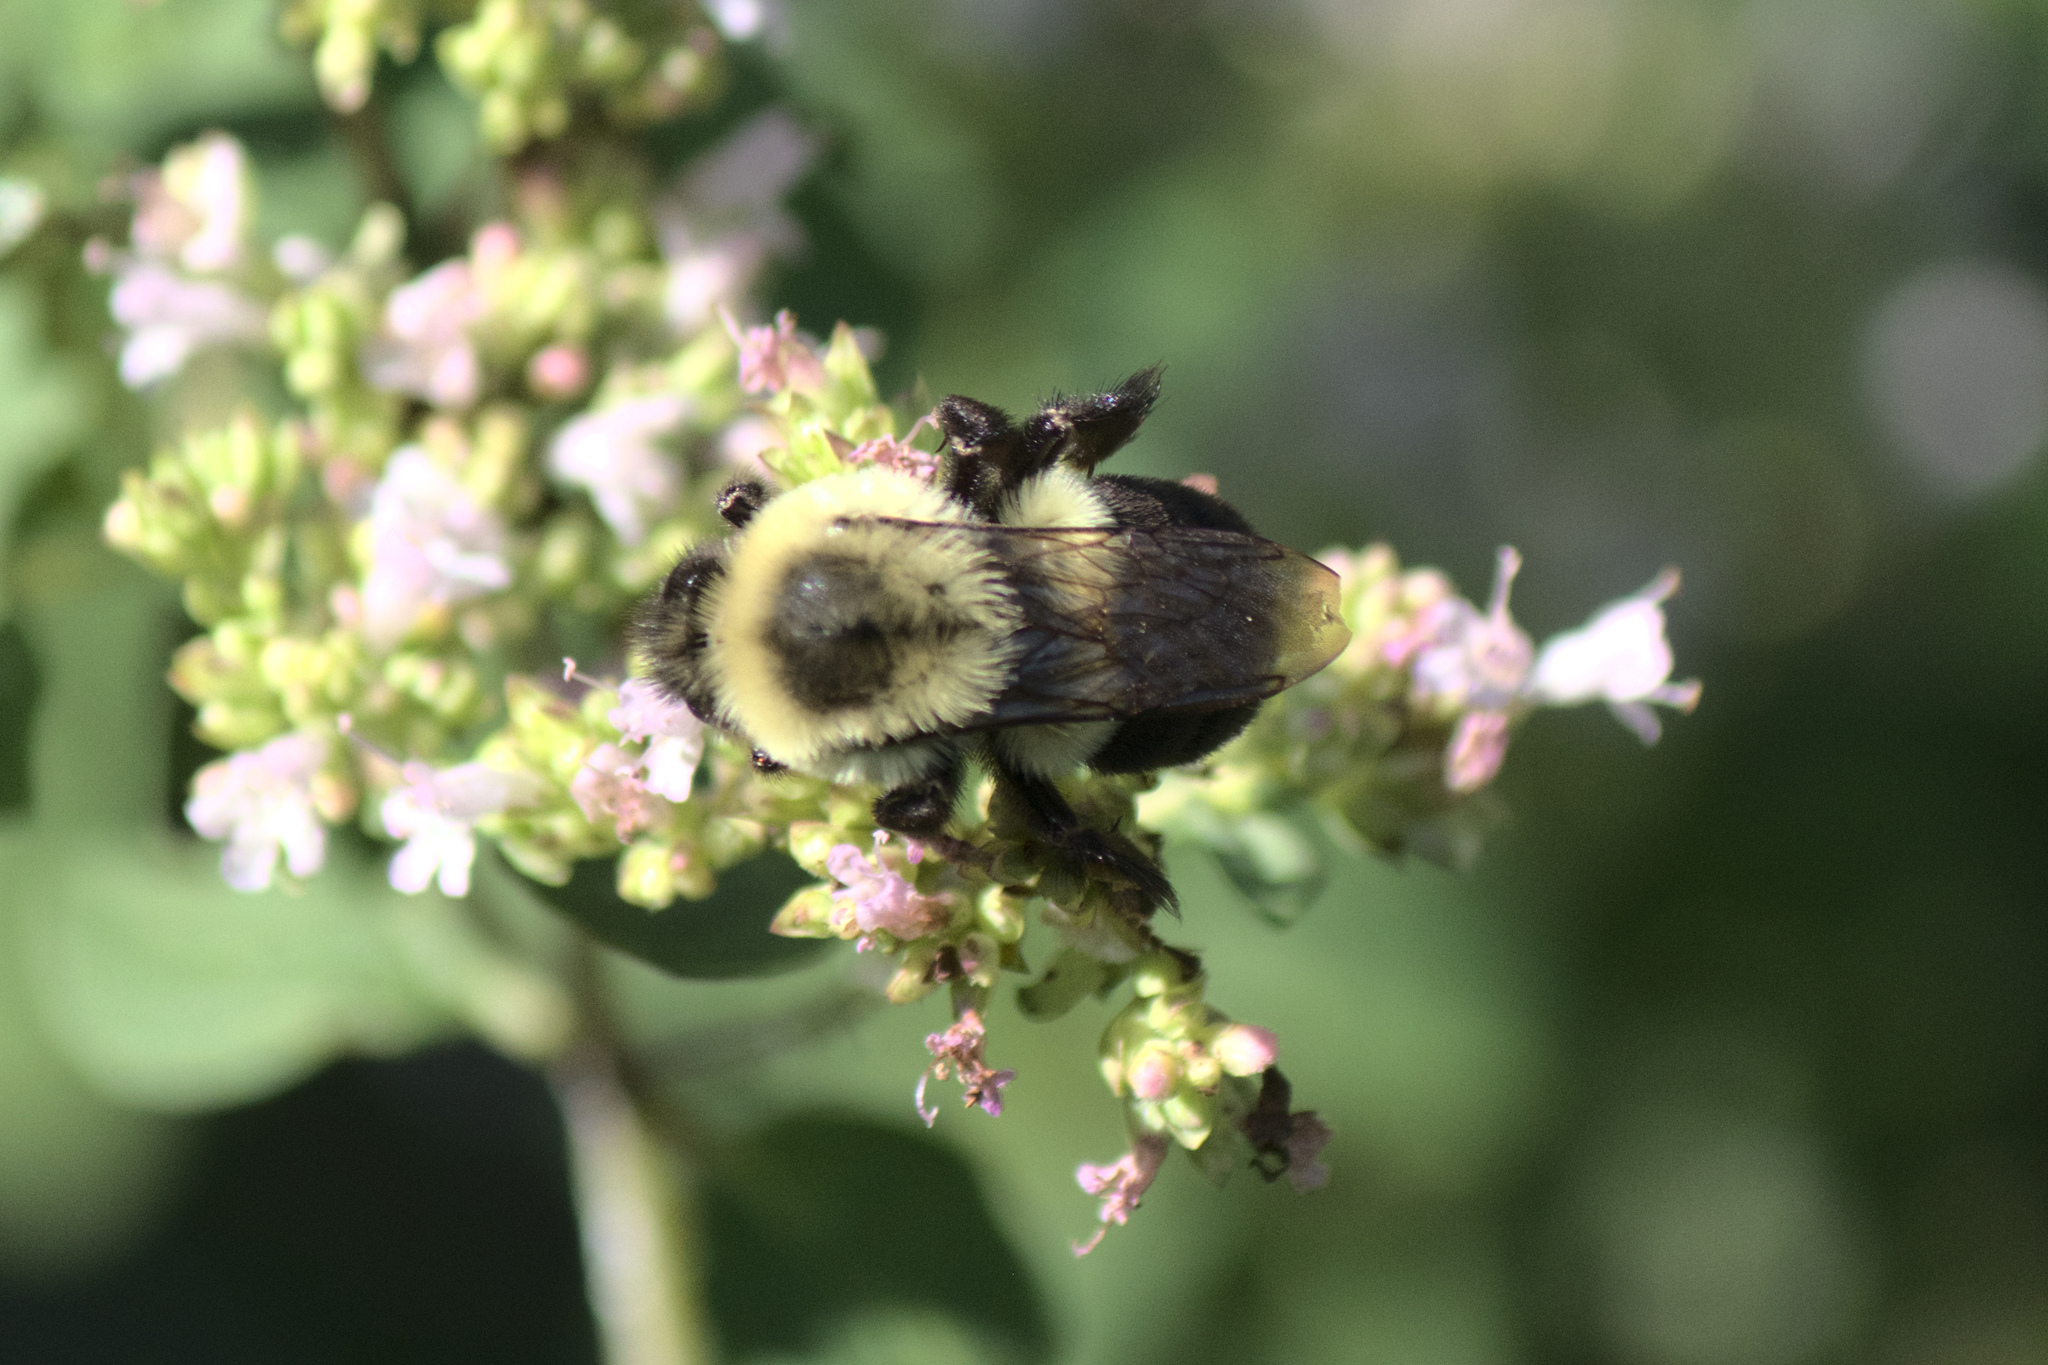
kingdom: Animalia
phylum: Arthropoda
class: Insecta
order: Hymenoptera
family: Apidae
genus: Bombus
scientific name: Bombus impatiens
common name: Common eastern bumble bee
